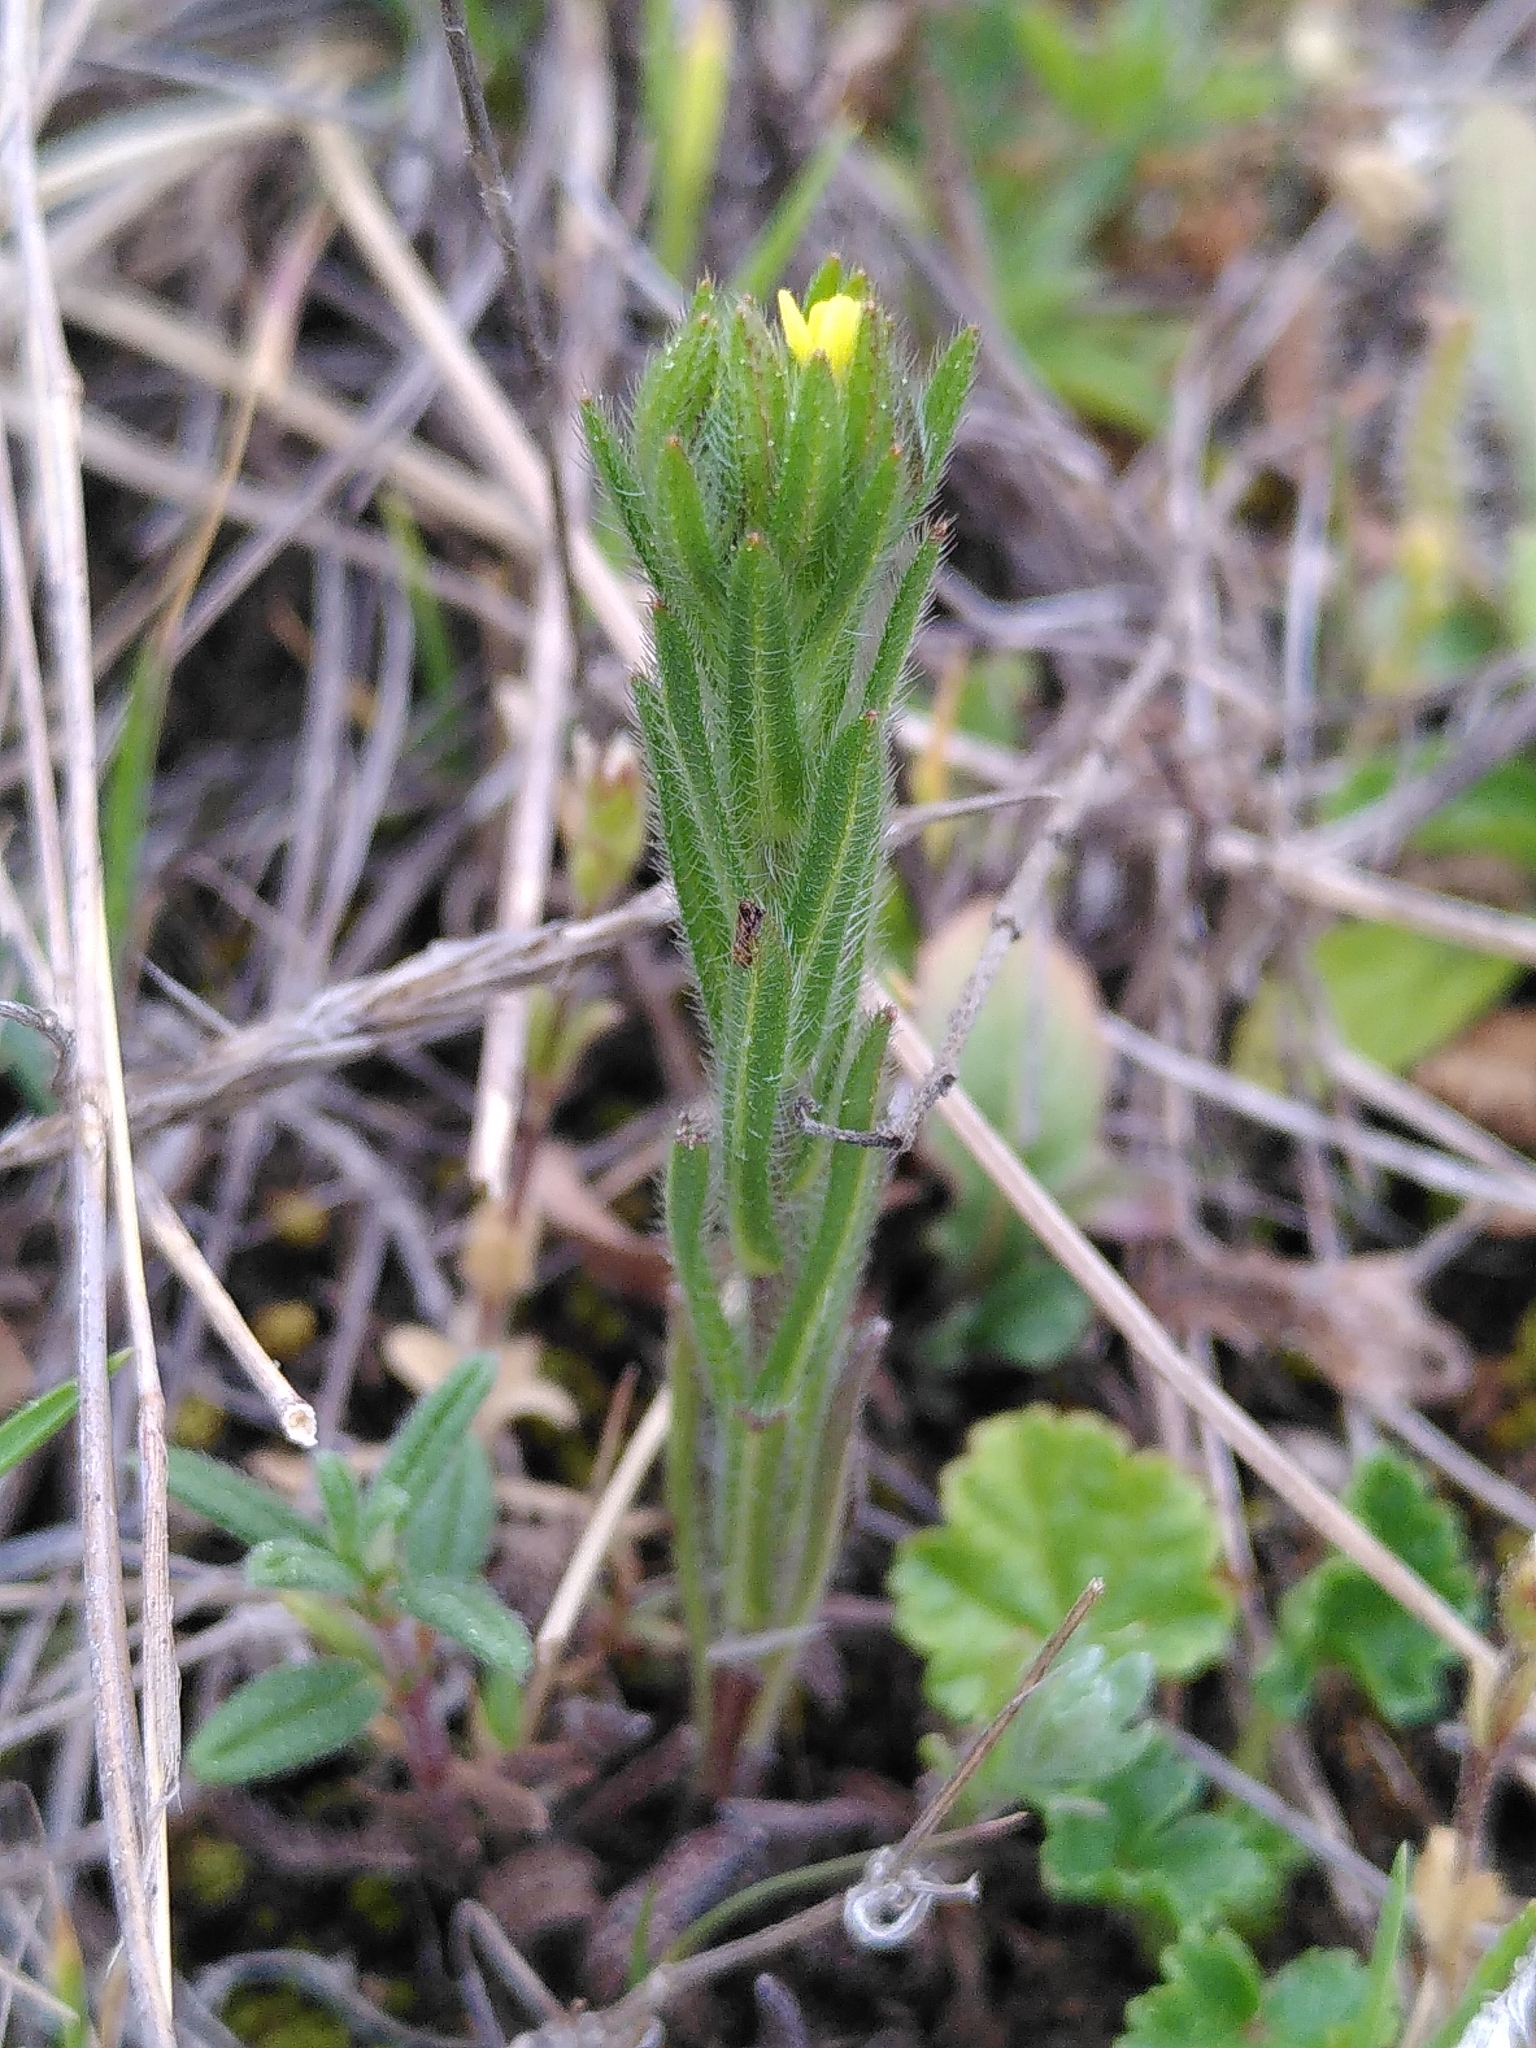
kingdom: Plantae
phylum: Tracheophyta
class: Magnoliopsida
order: Boraginales
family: Boraginaceae
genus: Neatostema
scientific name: Neatostema apulum
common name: Hairy sheepweed
